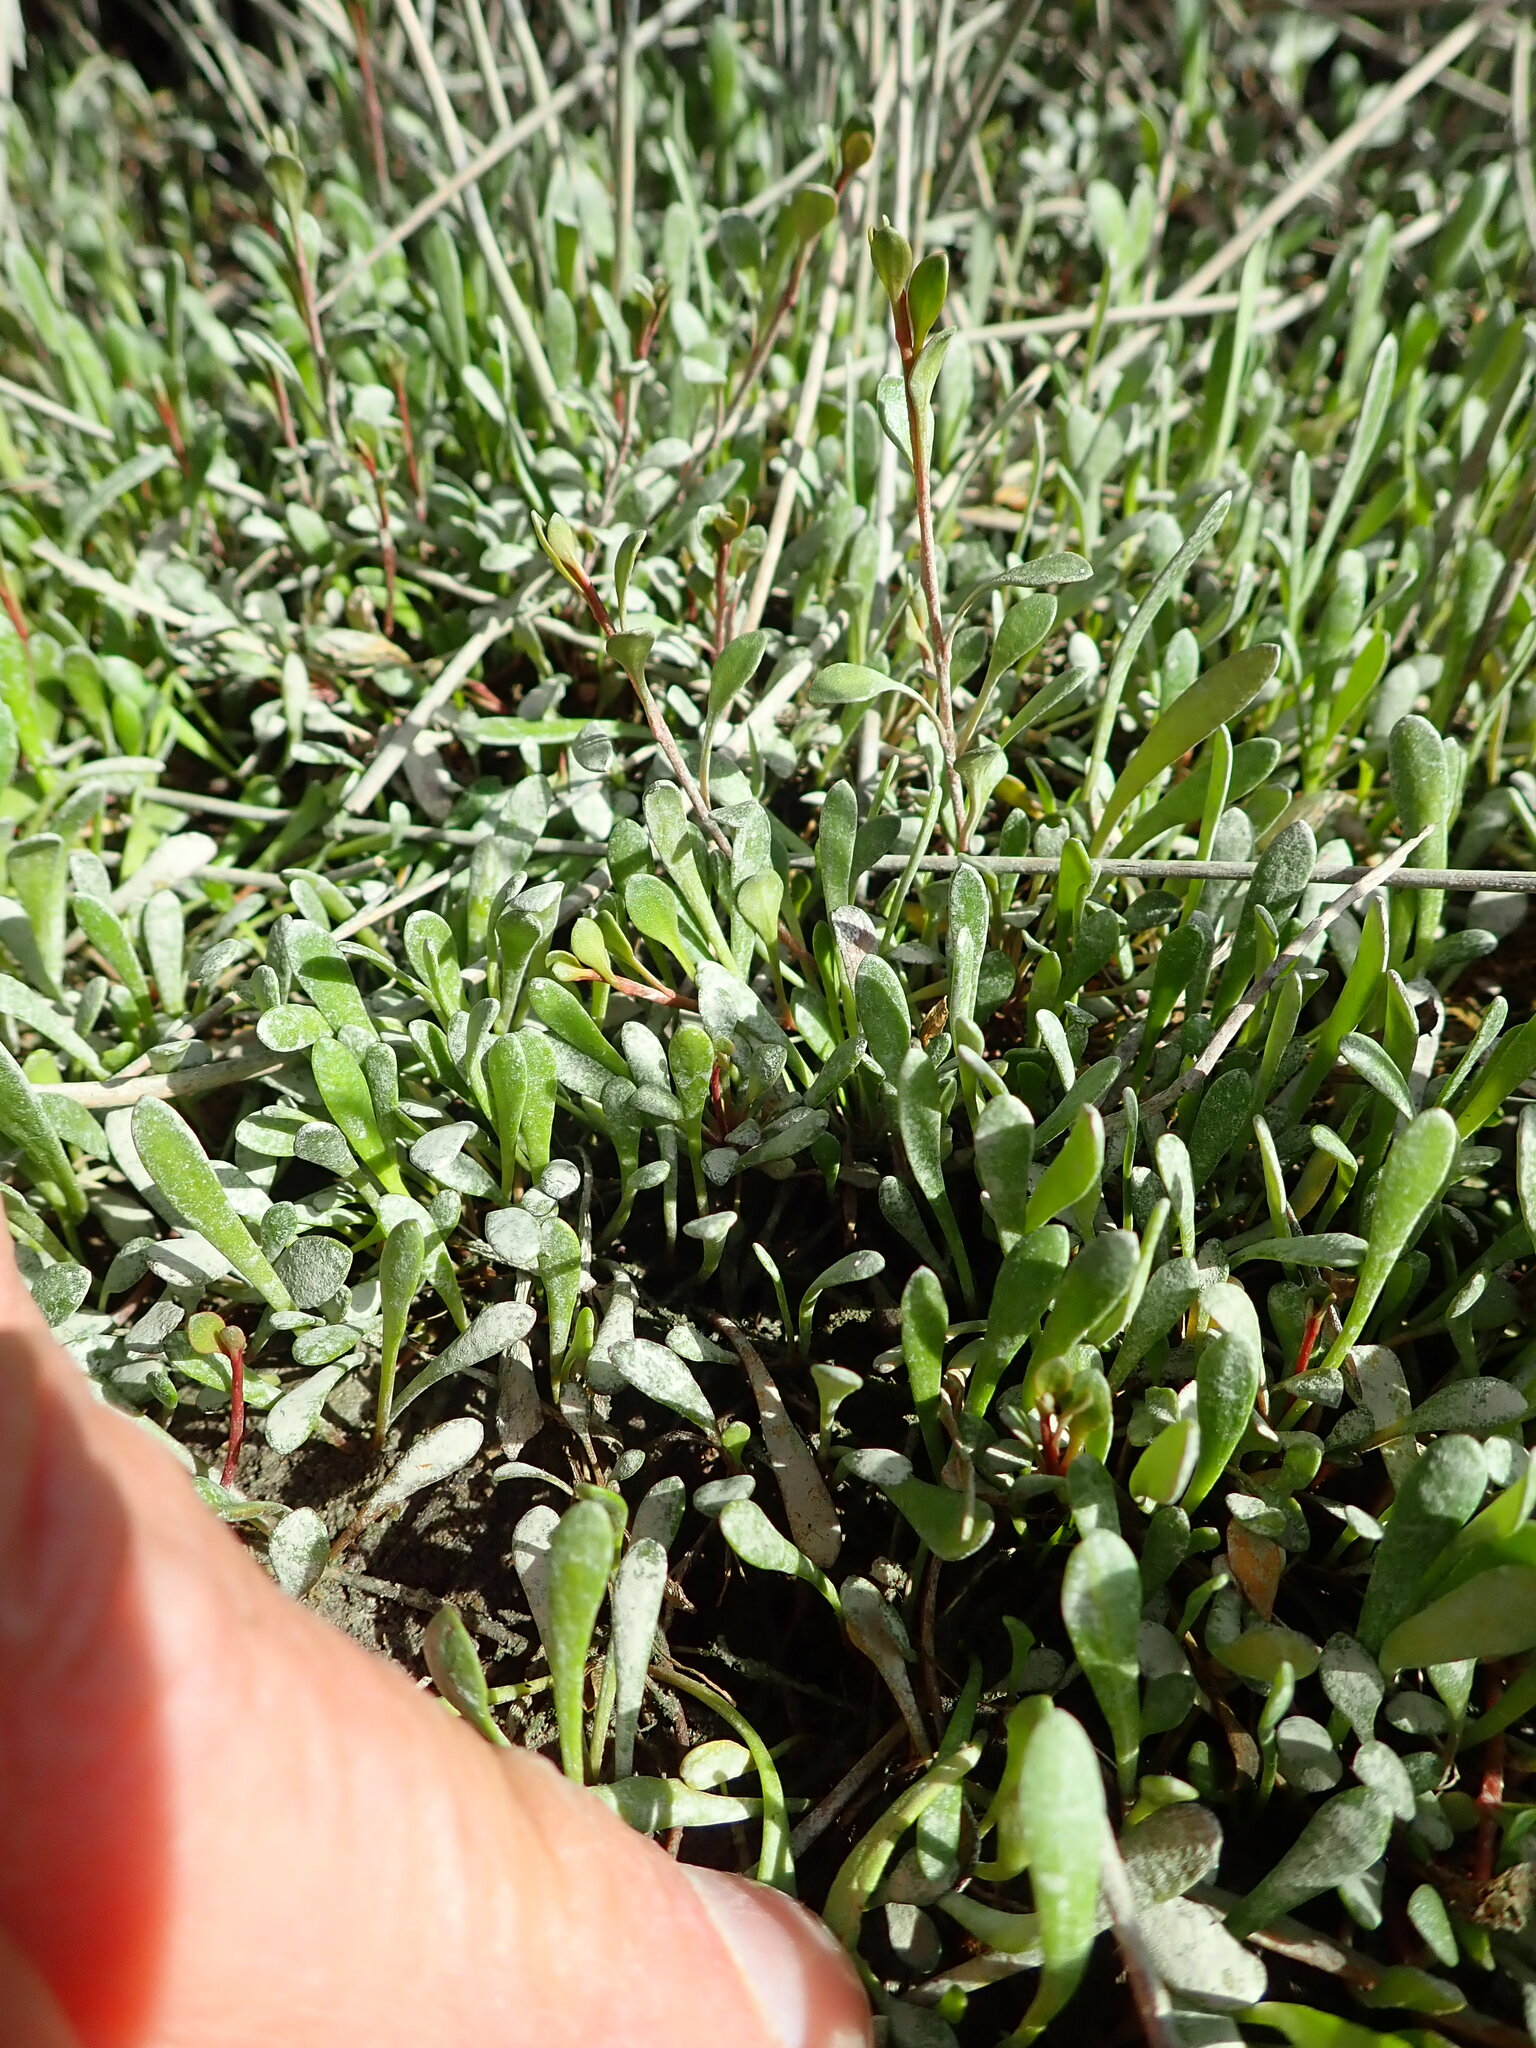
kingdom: Plantae
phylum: Tracheophyta
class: Magnoliopsida
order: Asterales
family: Goodeniaceae
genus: Goodenia
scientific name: Goodenia radicans
